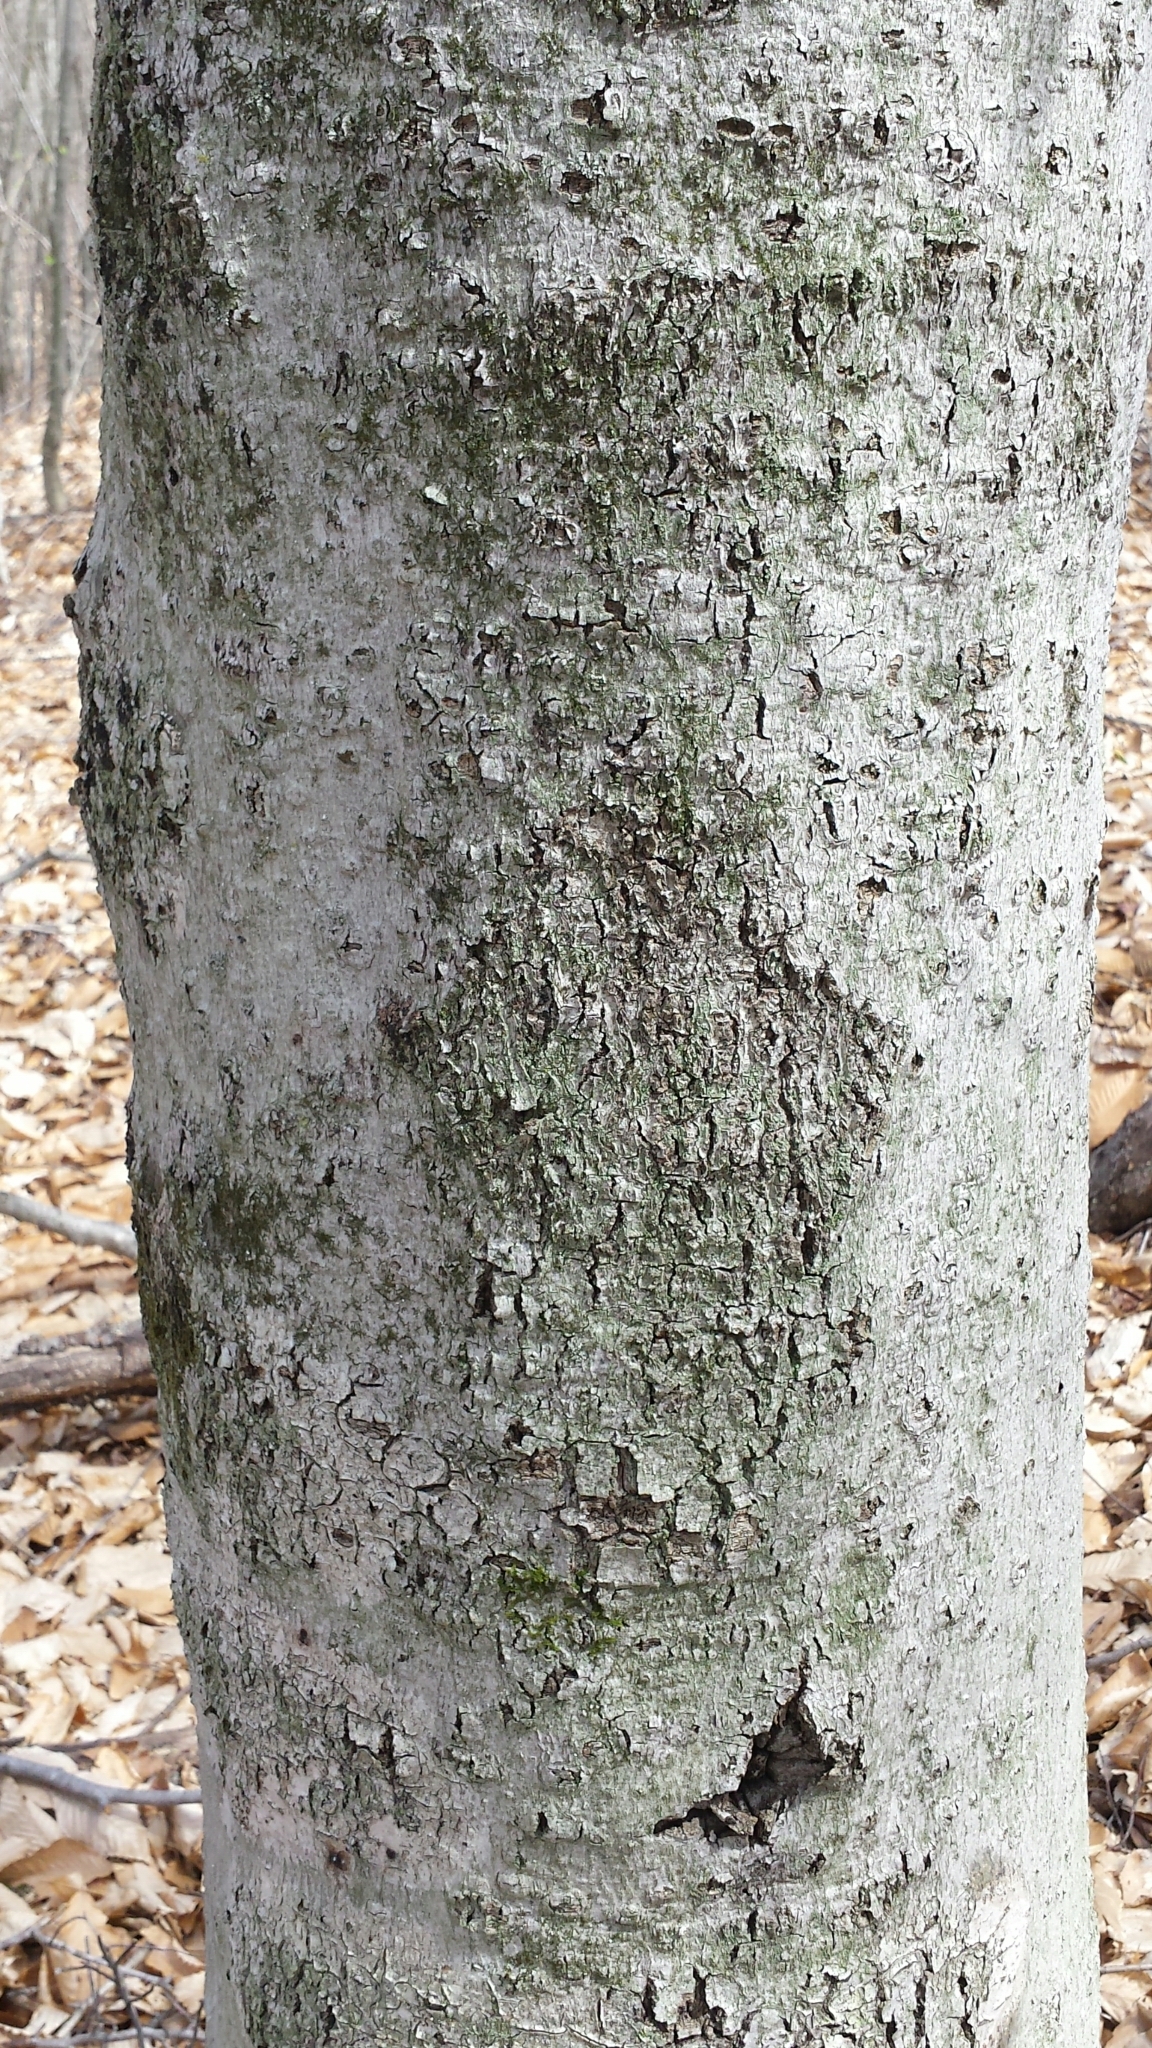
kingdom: Animalia
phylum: Arthropoda
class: Insecta
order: Hemiptera
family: Eriococcidae
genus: Cryptococcus
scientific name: Cryptococcus fagisuga
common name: Beech scale
